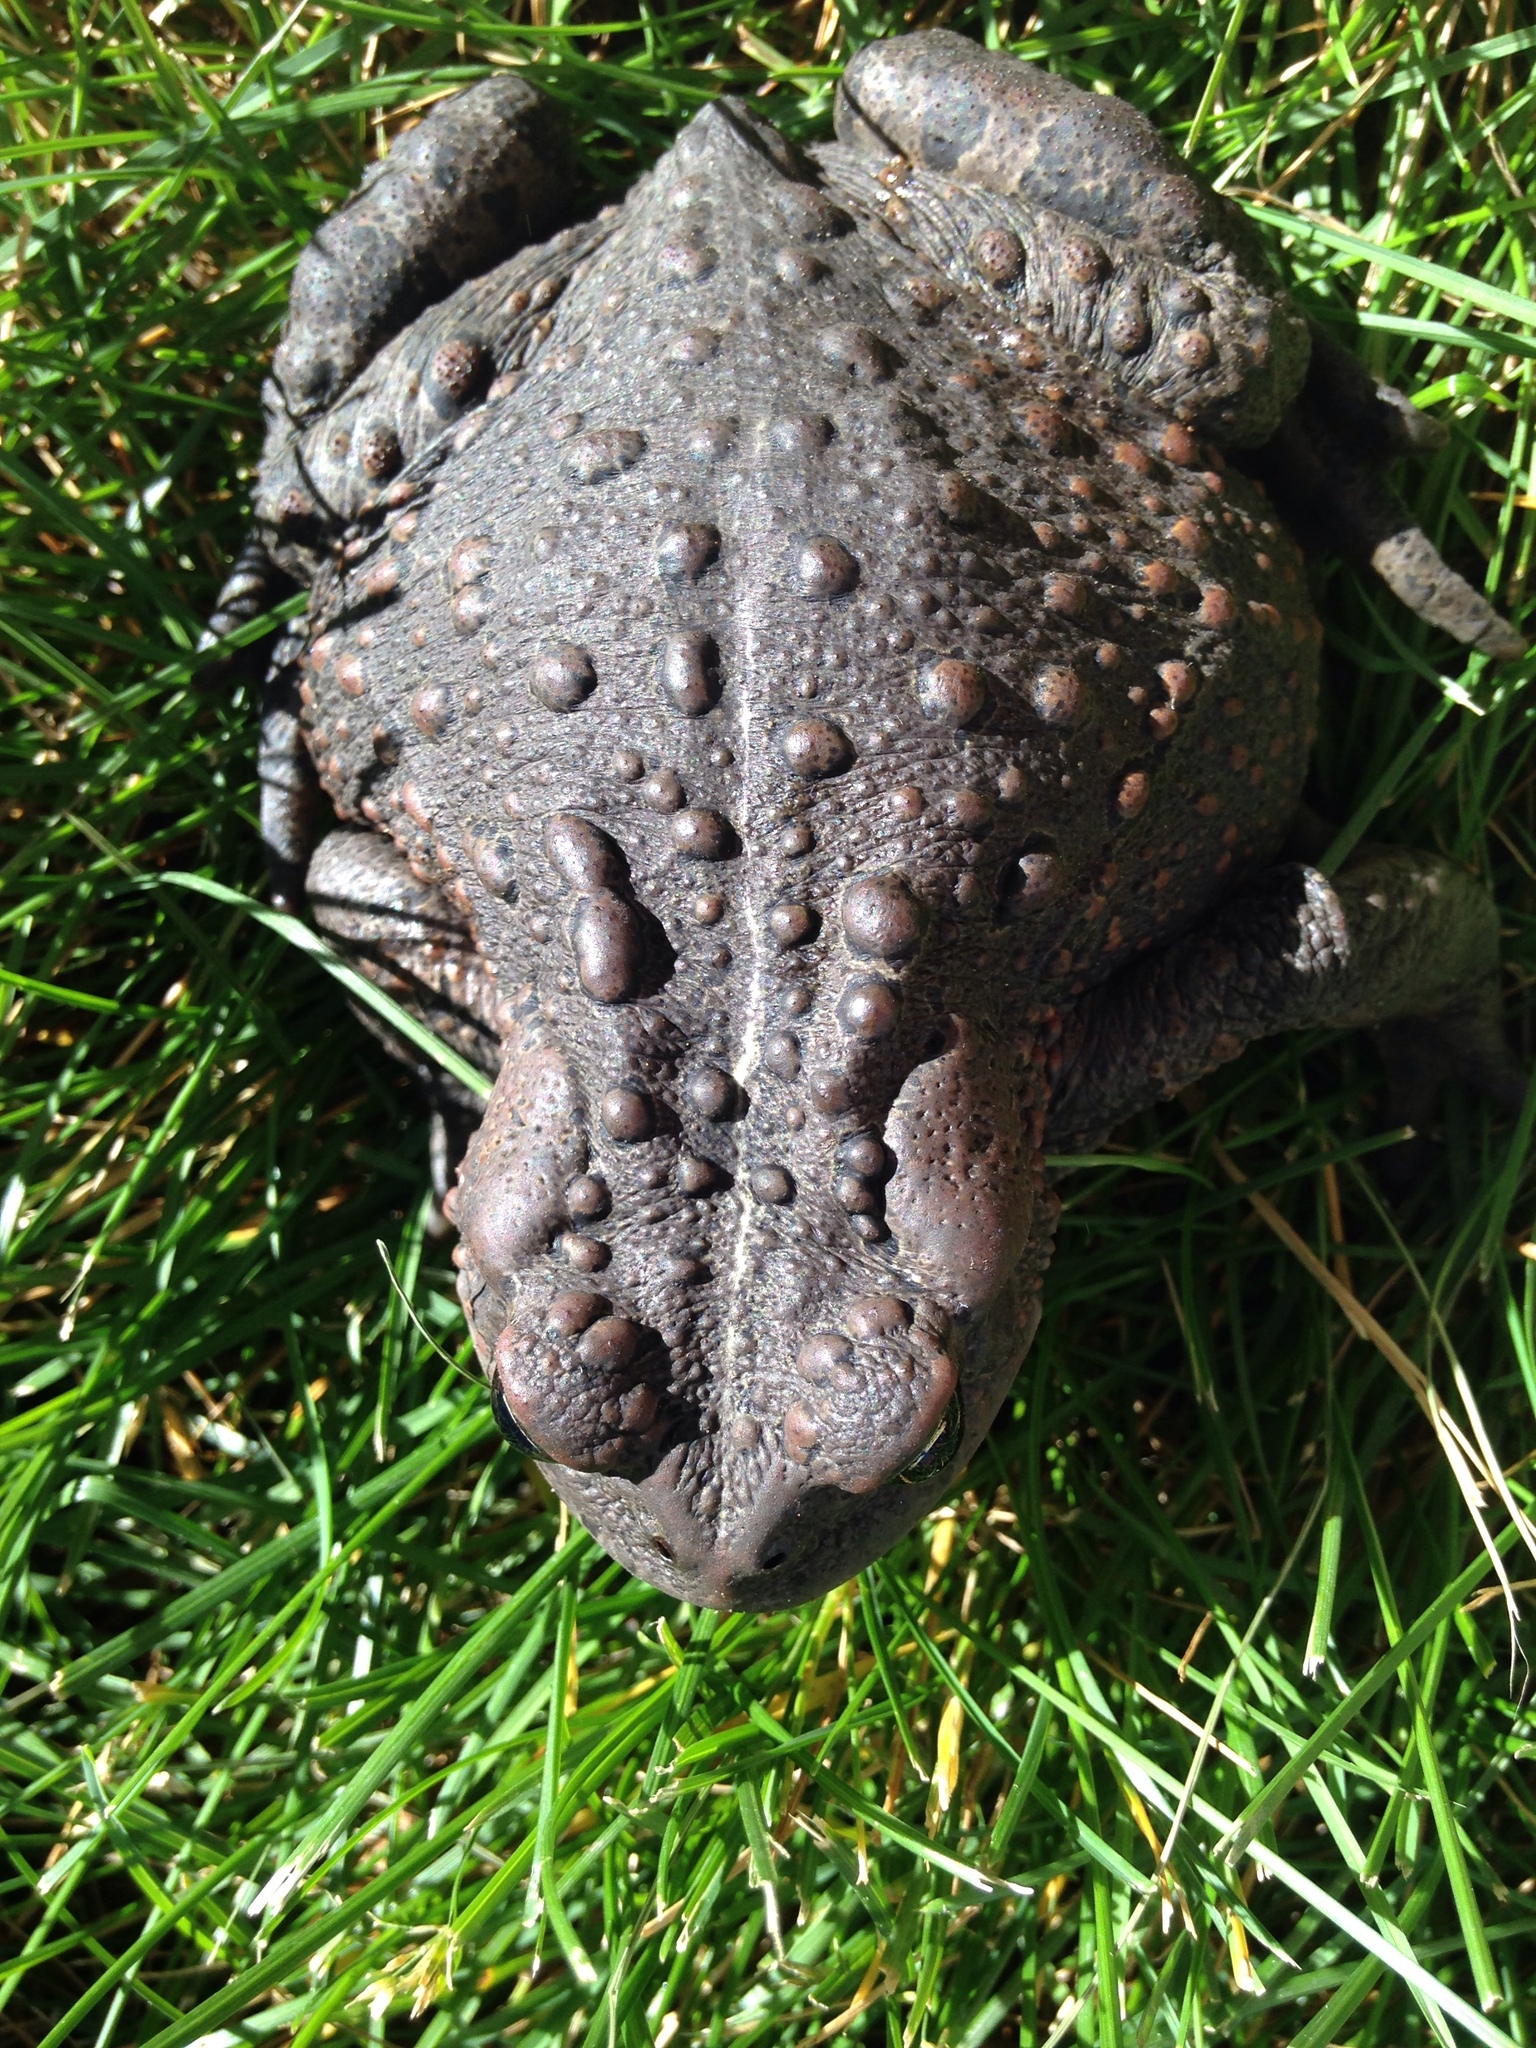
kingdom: Animalia
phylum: Chordata
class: Amphibia
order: Anura
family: Bufonidae
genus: Anaxyrus
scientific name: Anaxyrus boreas
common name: Western toad
